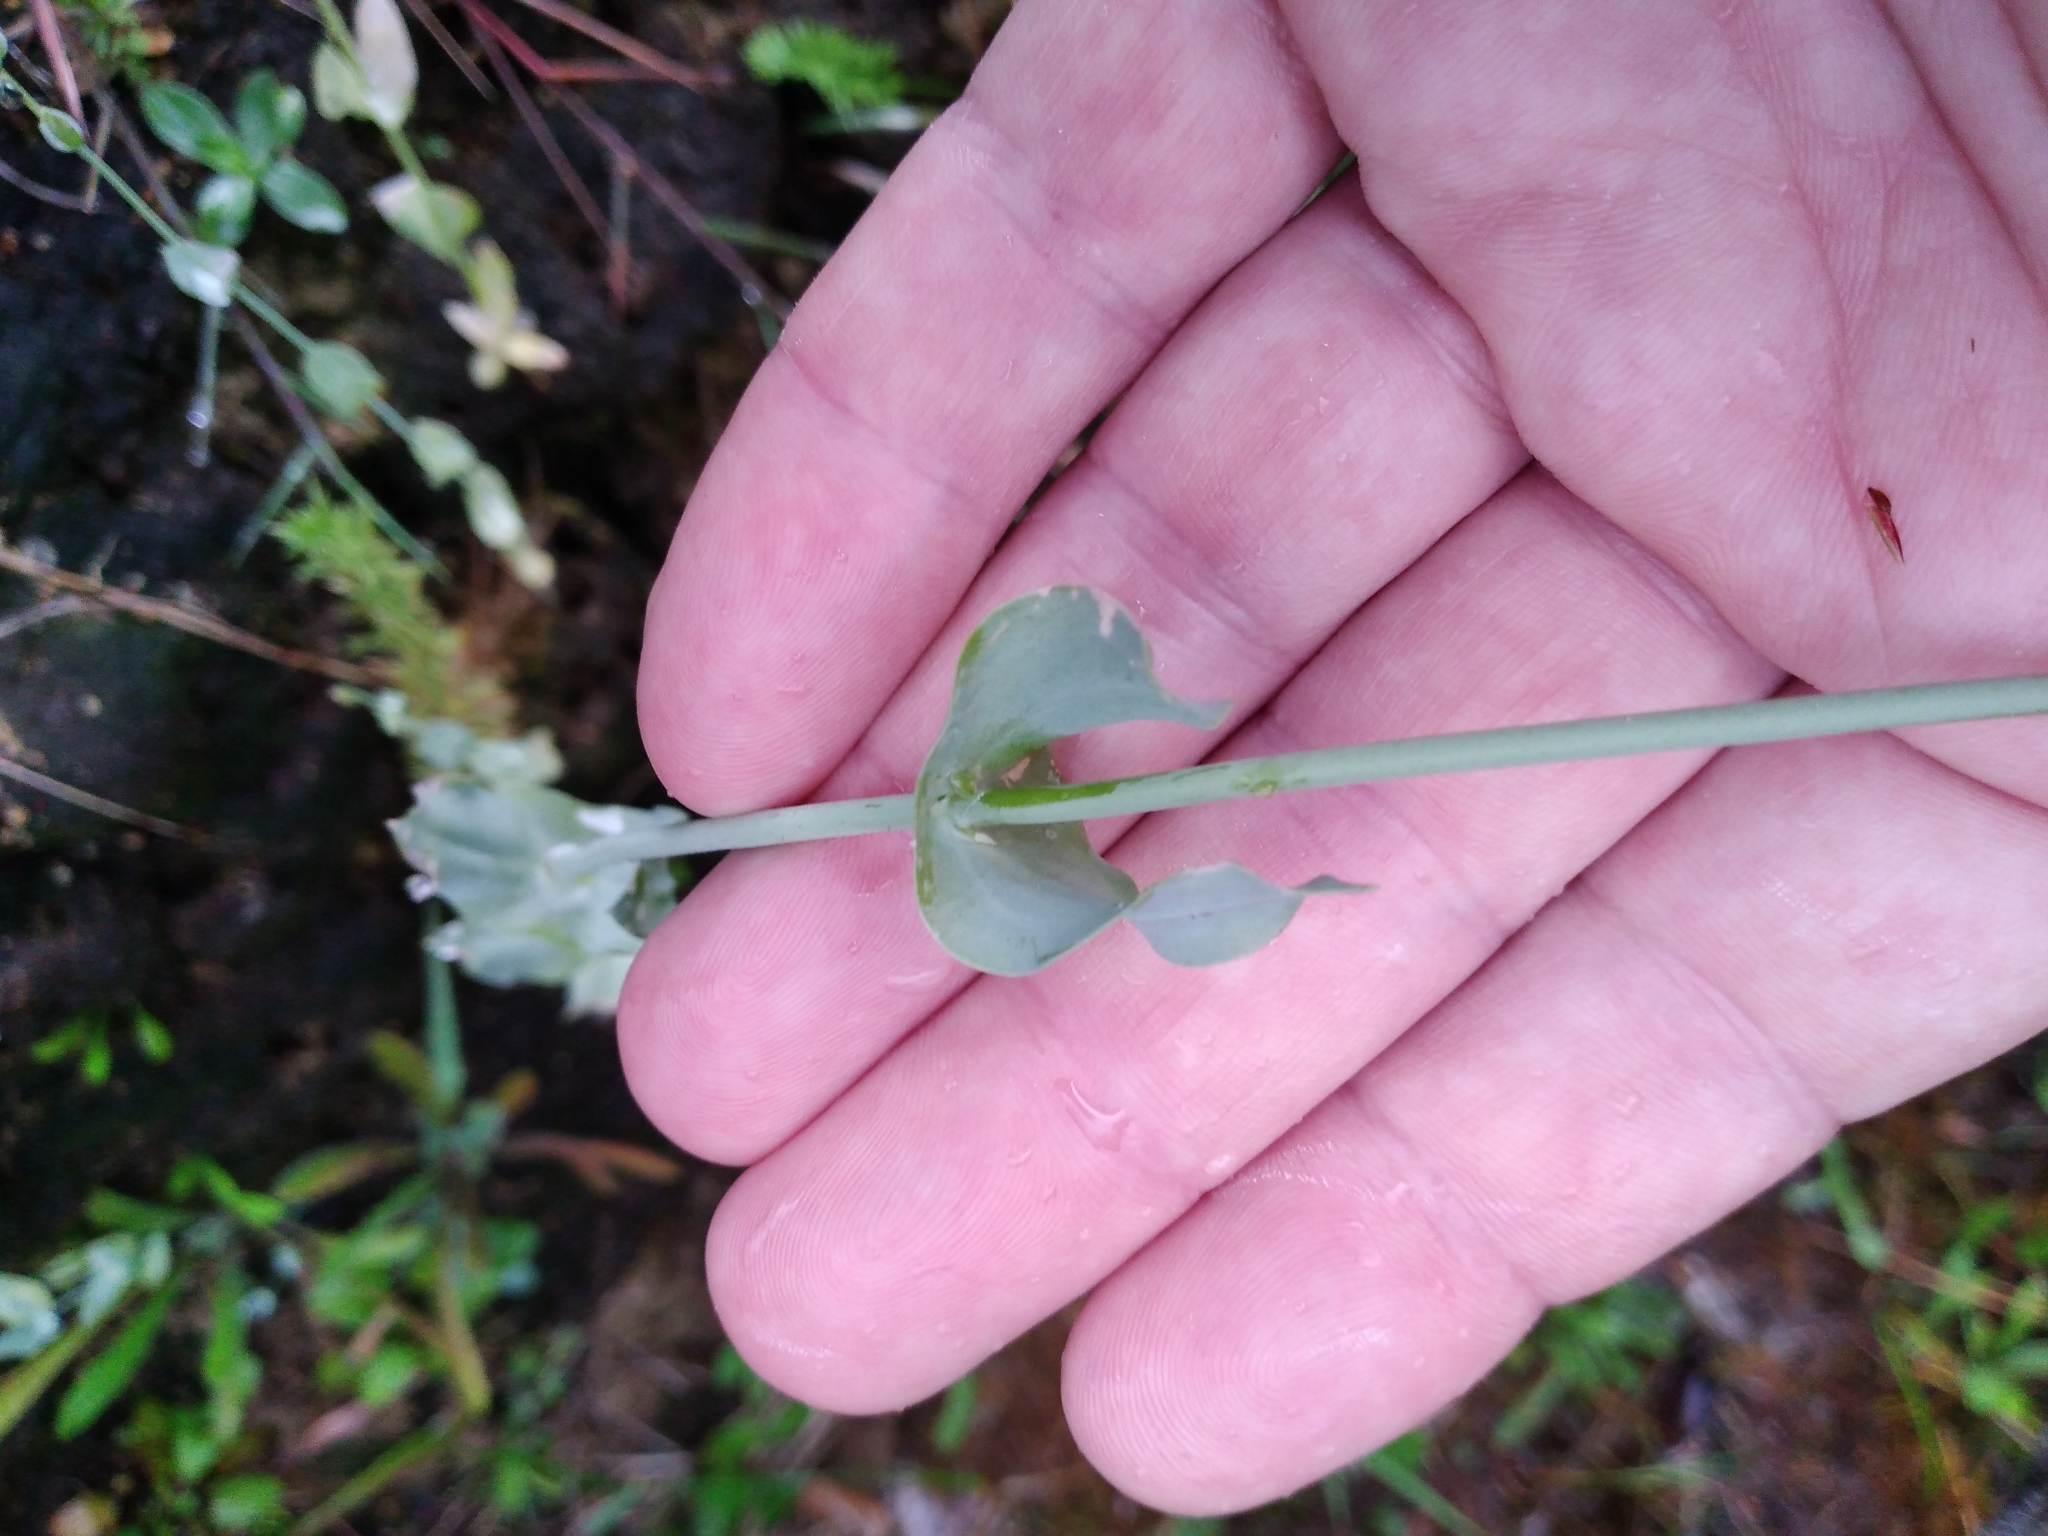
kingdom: Plantae
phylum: Tracheophyta
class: Magnoliopsida
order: Gentianales
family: Gentianaceae
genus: Blackstonia
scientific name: Blackstonia perfoliata
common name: Yellow-wort
